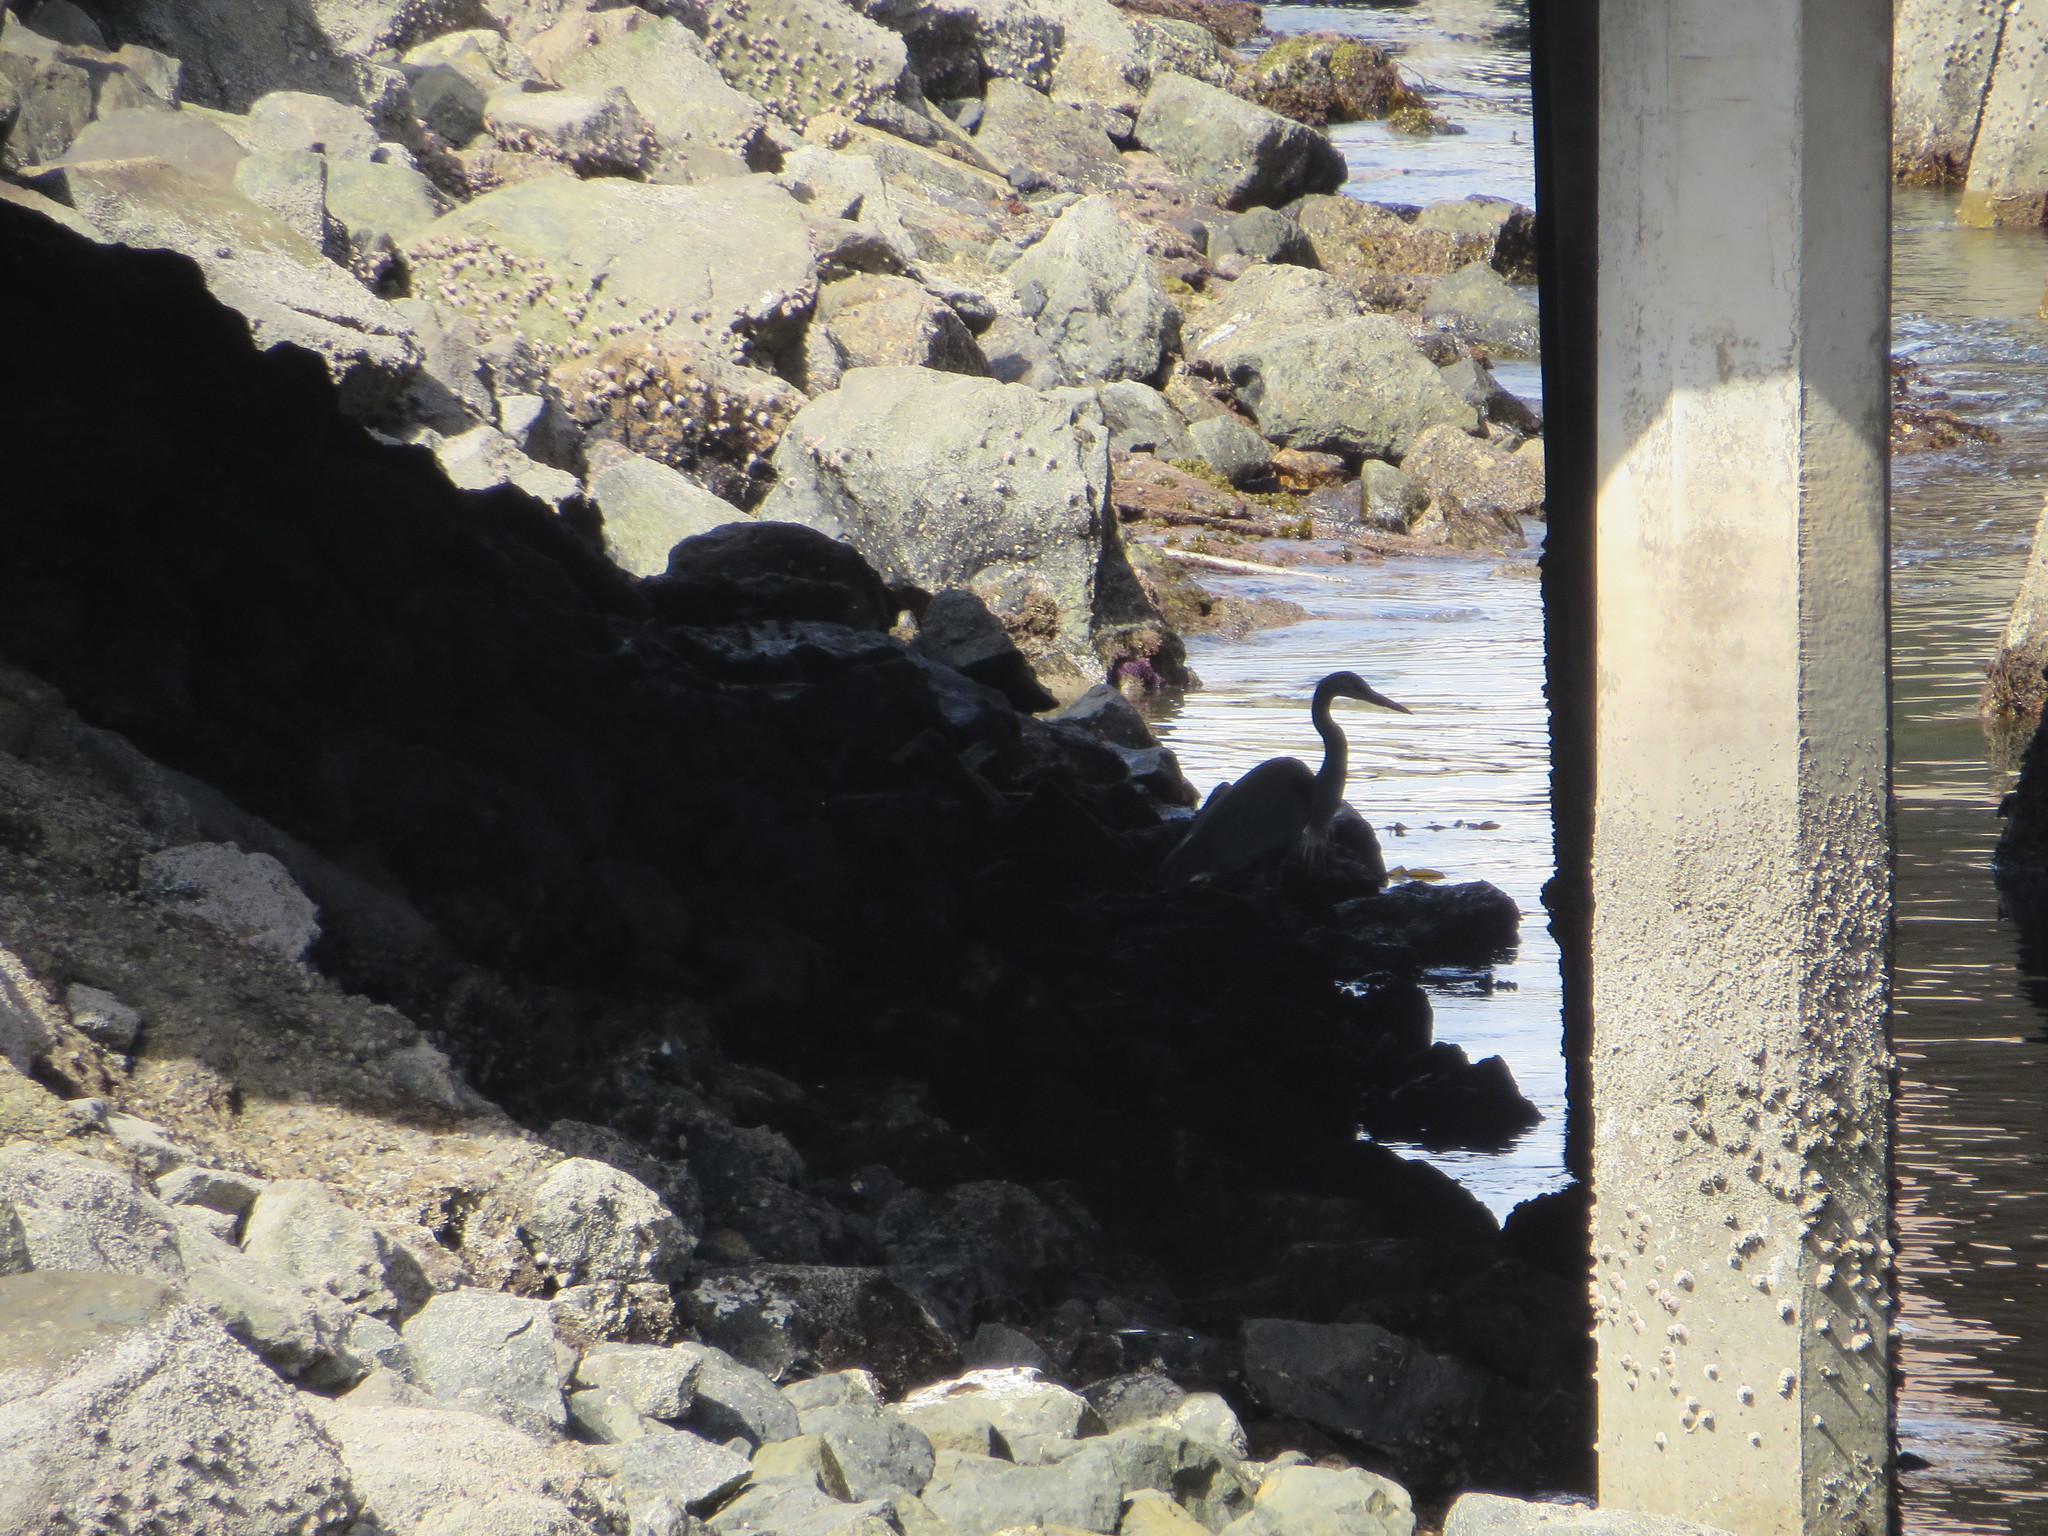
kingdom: Animalia
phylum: Chordata
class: Aves
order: Pelecaniformes
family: Ardeidae
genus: Ardea
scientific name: Ardea herodias
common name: Great blue heron
